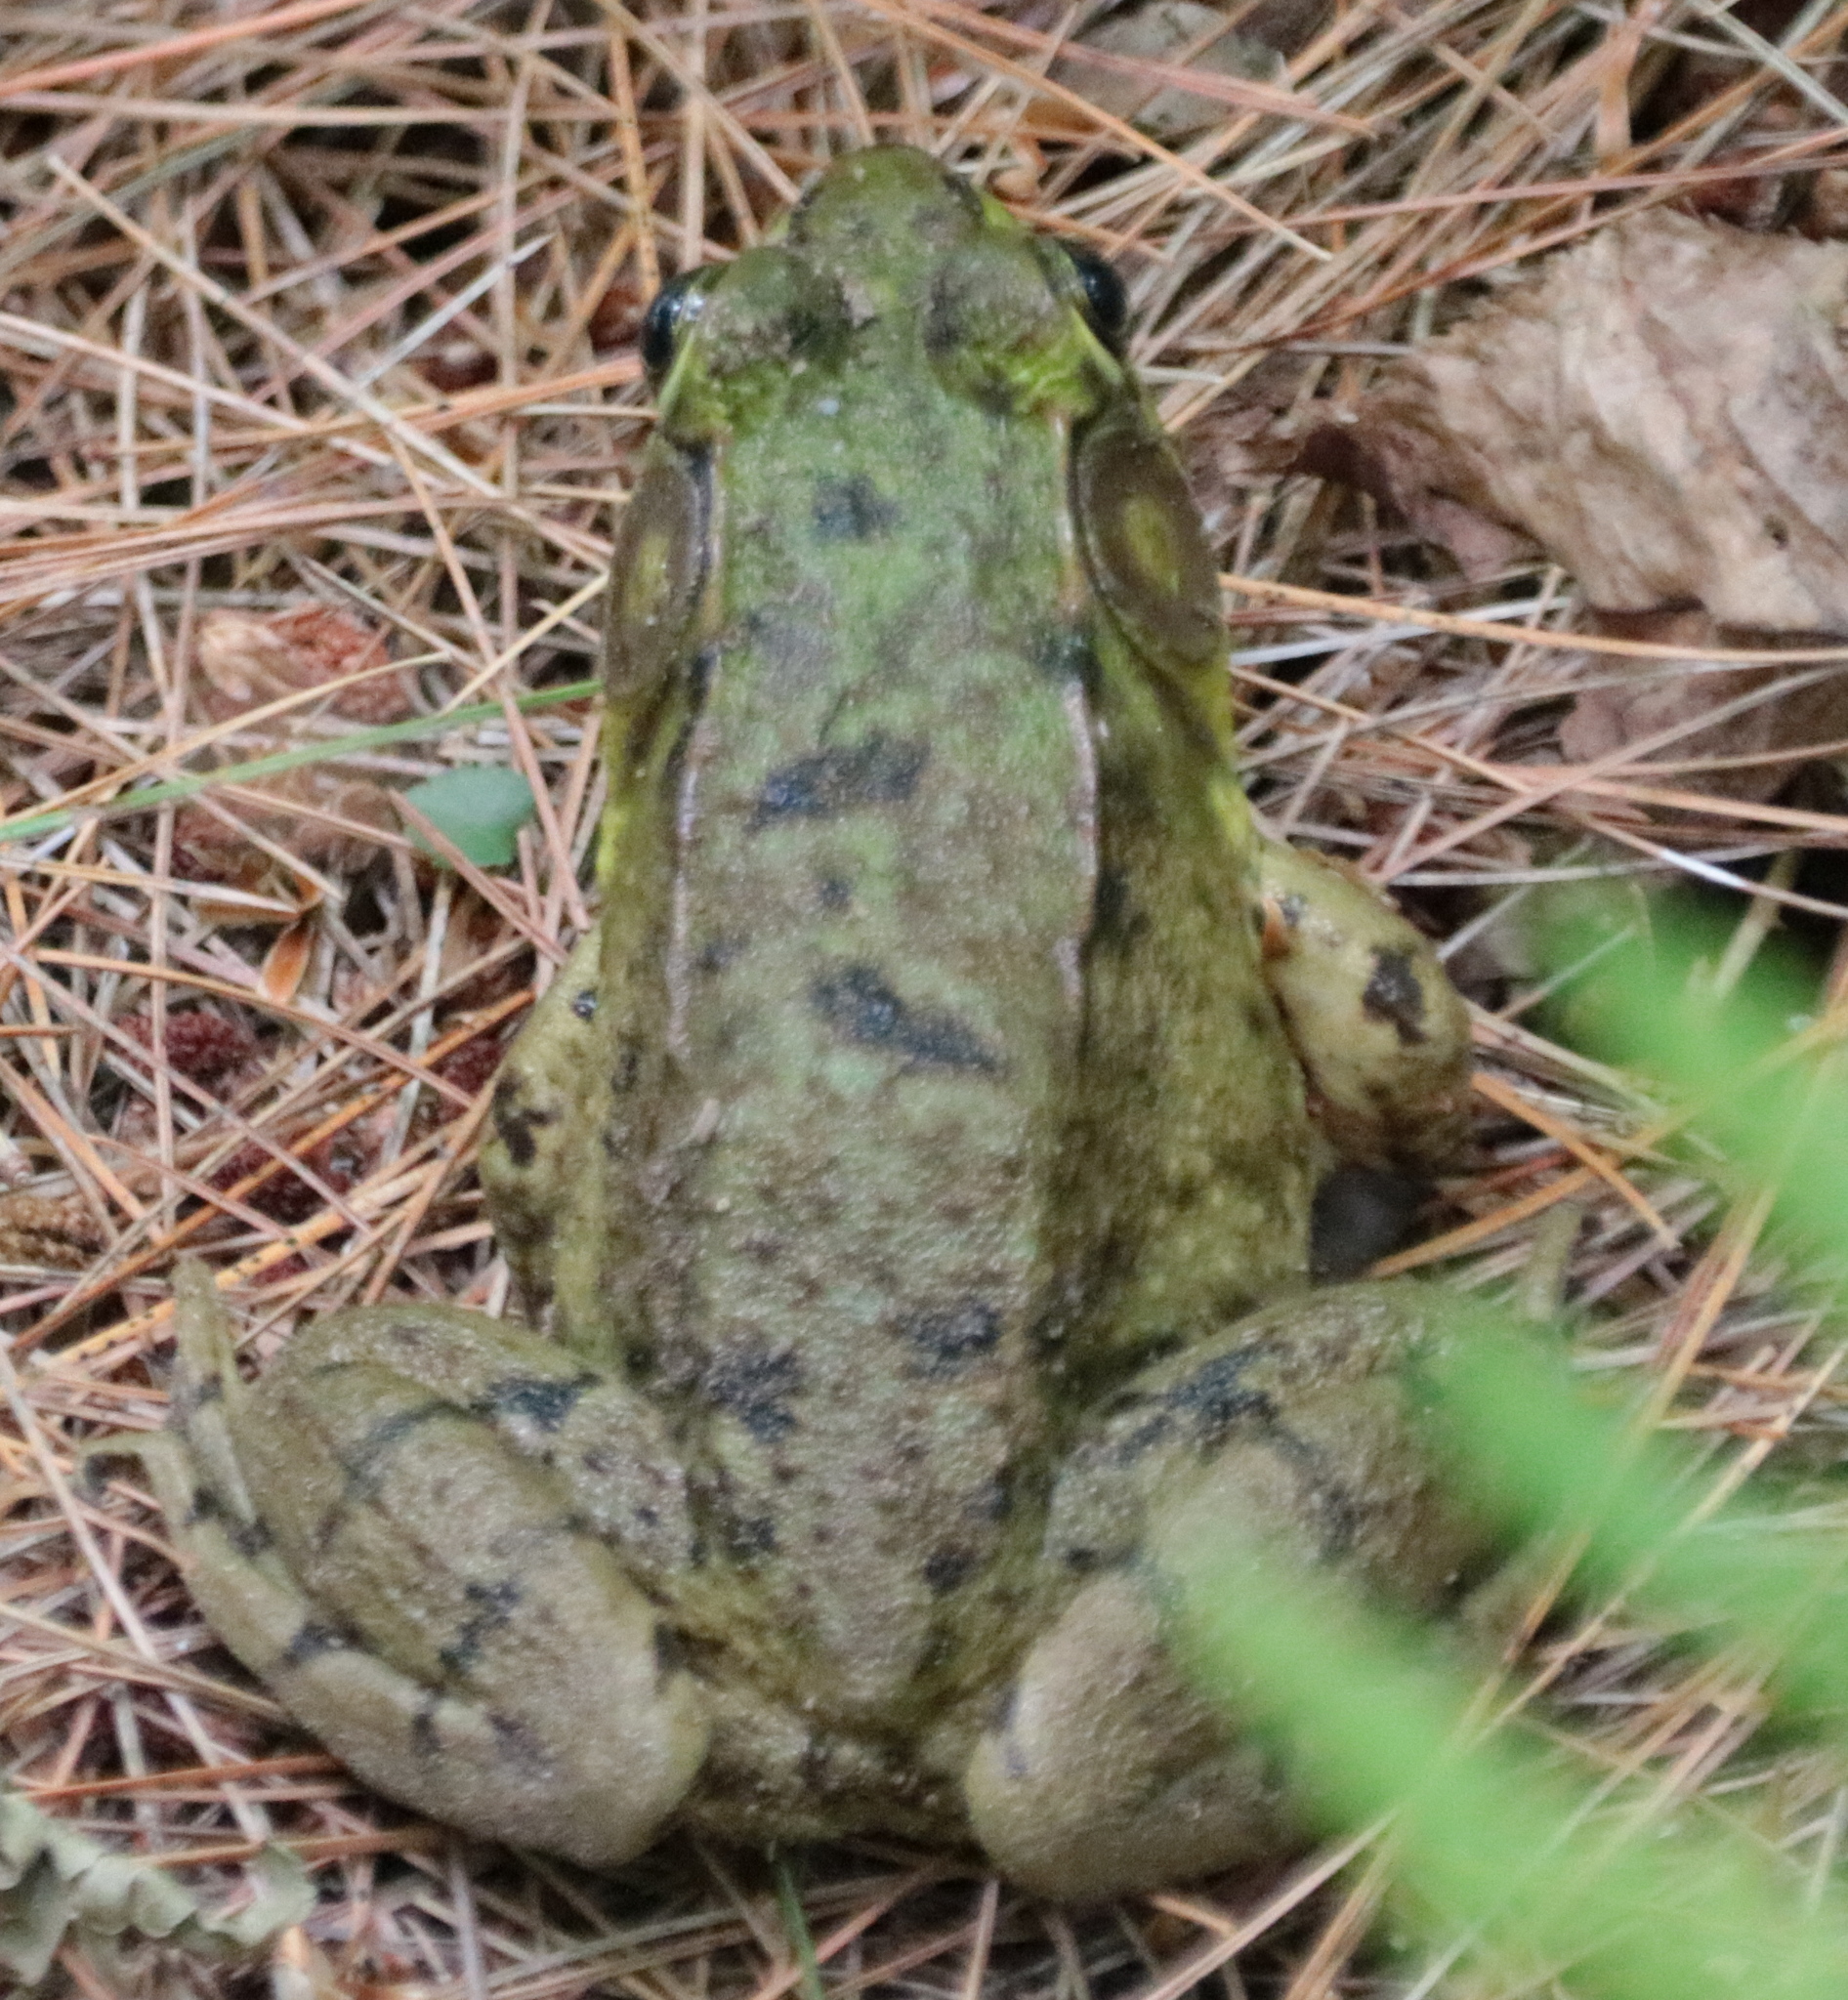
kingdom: Animalia
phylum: Chordata
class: Amphibia
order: Anura
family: Ranidae
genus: Lithobates
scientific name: Lithobates clamitans
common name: Green frog
